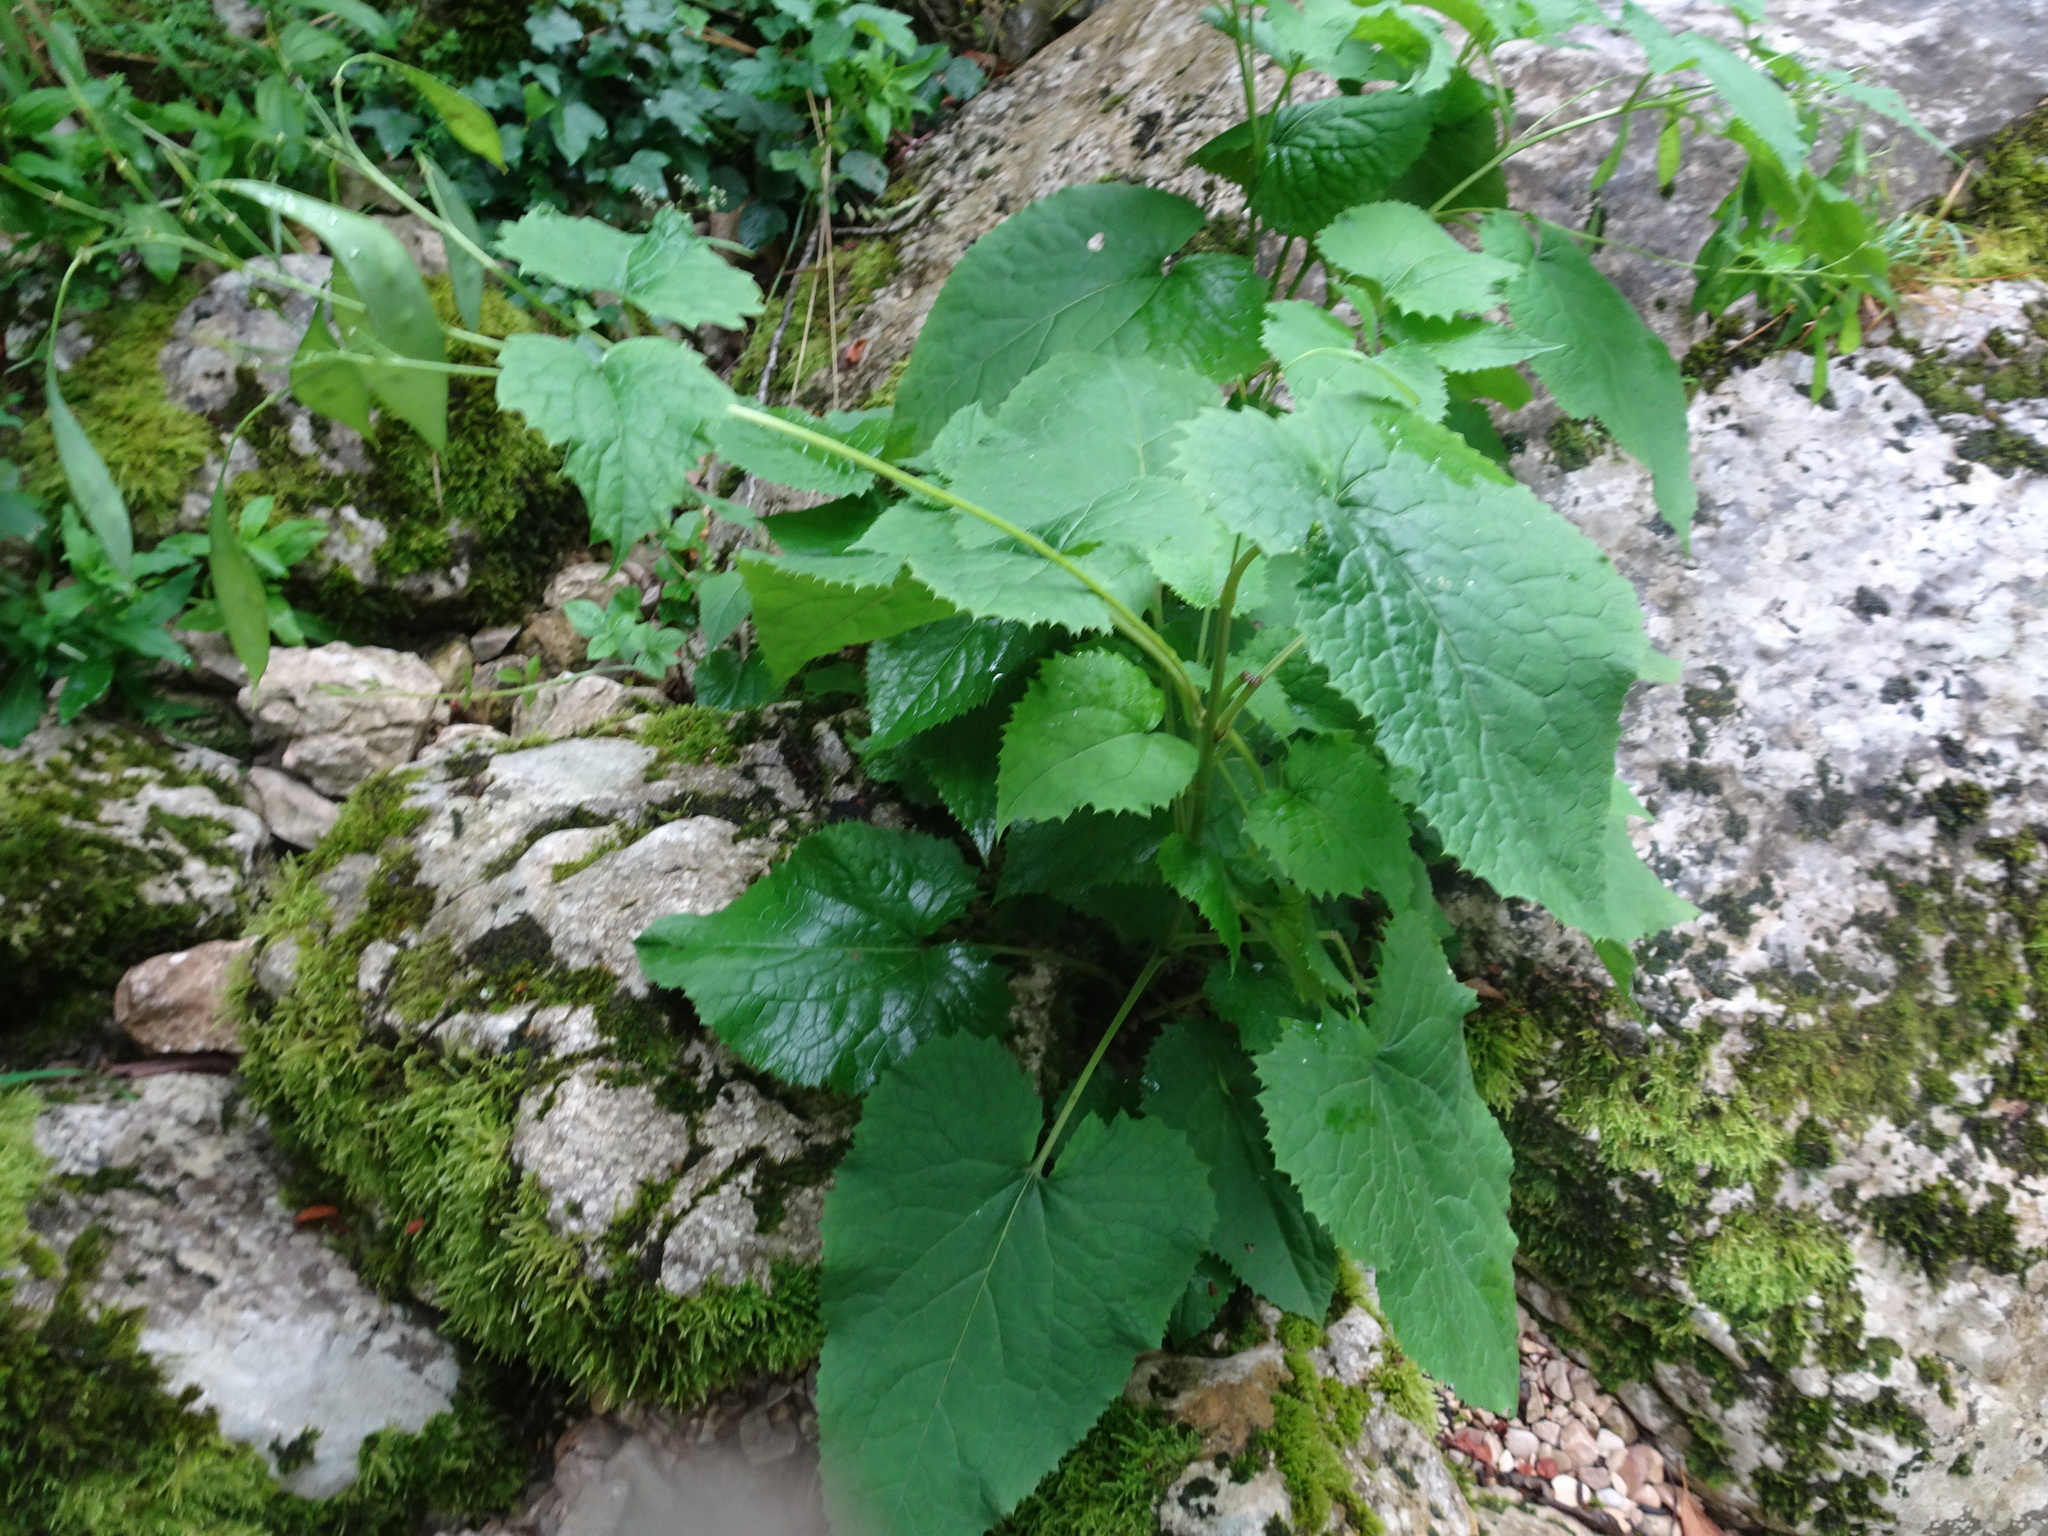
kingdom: Plantae
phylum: Tracheophyta
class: Magnoliopsida
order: Brassicales
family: Brassicaceae
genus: Lunaria
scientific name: Lunaria rediviva
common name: Perennial honesty
